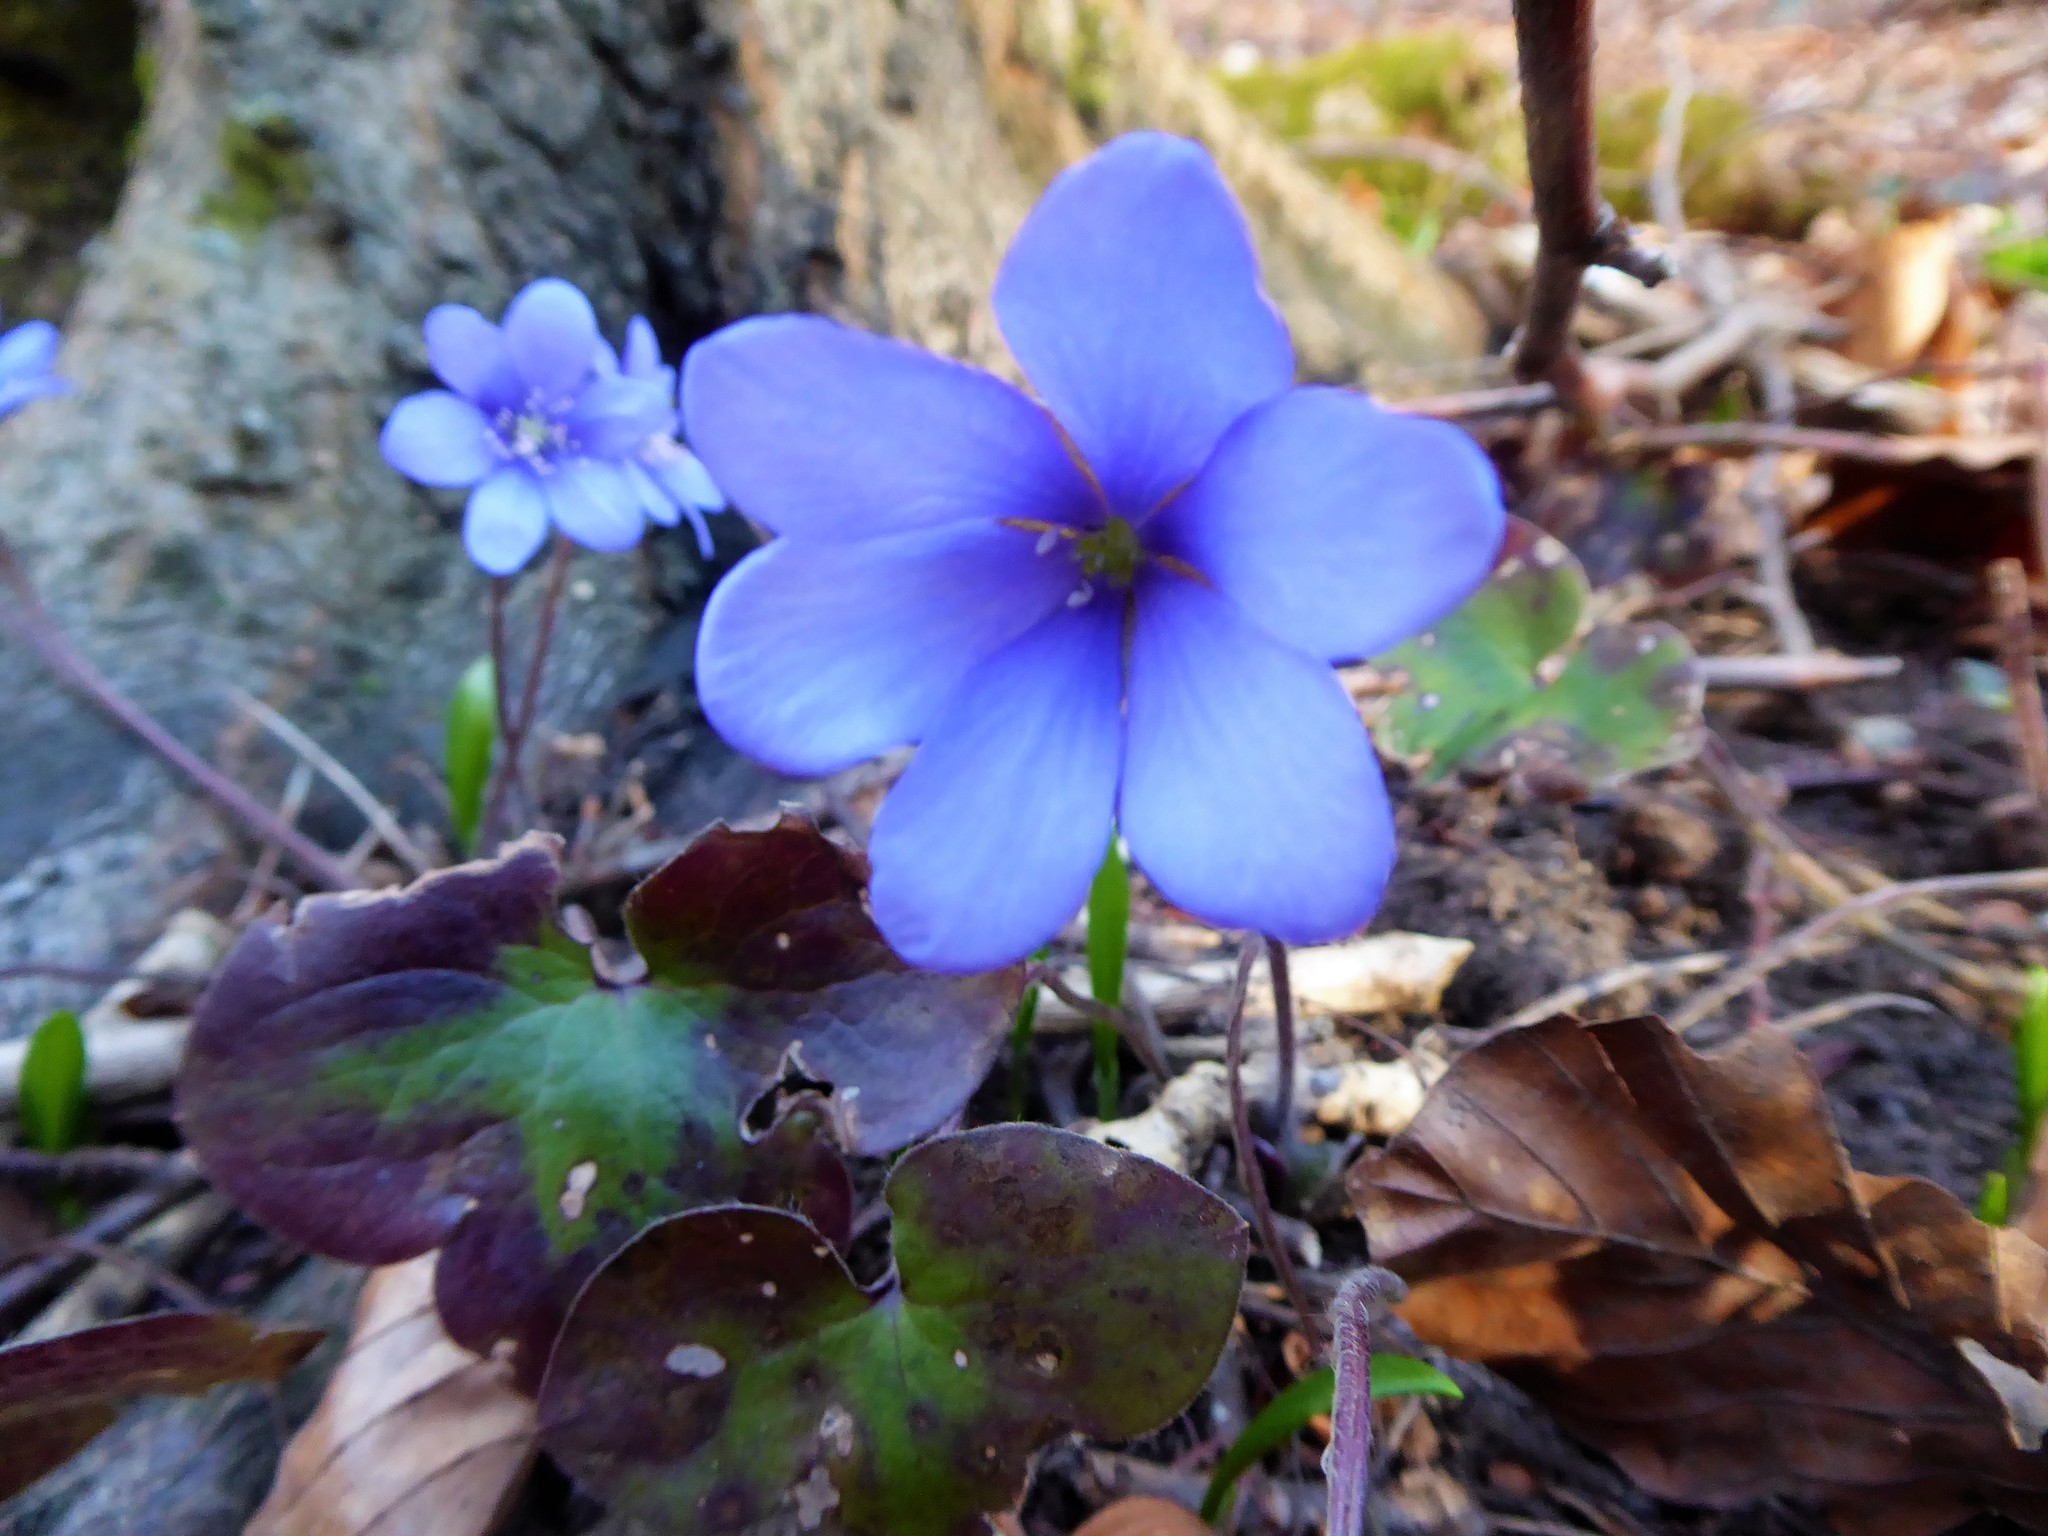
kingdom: Plantae
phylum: Tracheophyta
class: Magnoliopsida
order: Ranunculales
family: Ranunculaceae
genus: Hepatica
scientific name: Hepatica nobilis
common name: Liverleaf
